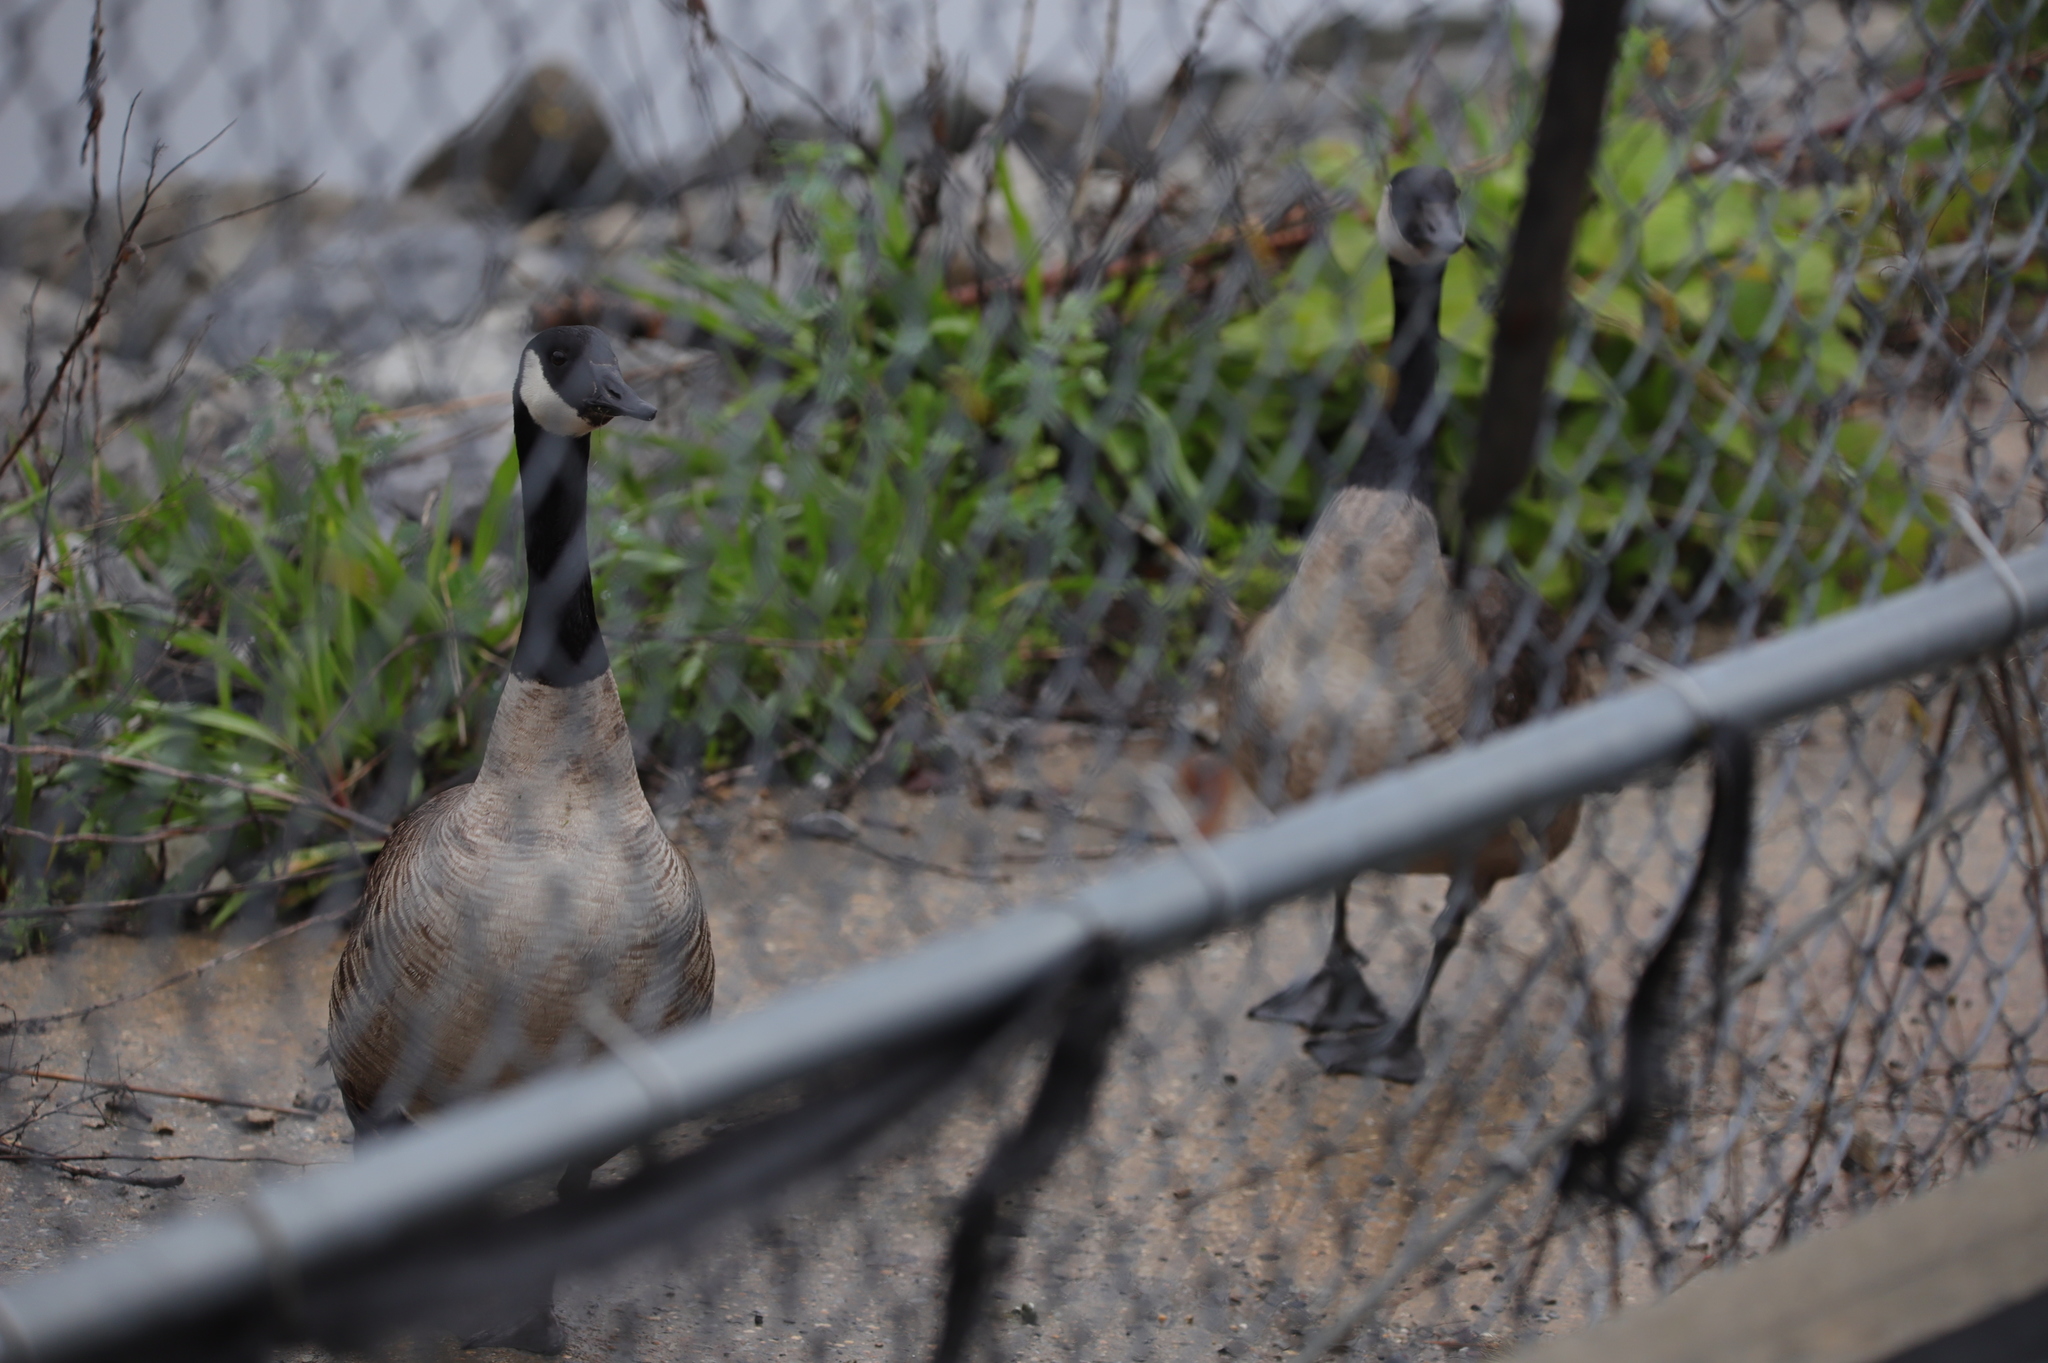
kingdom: Animalia
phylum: Chordata
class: Aves
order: Anseriformes
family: Anatidae
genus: Branta
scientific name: Branta canadensis
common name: Canada goose
